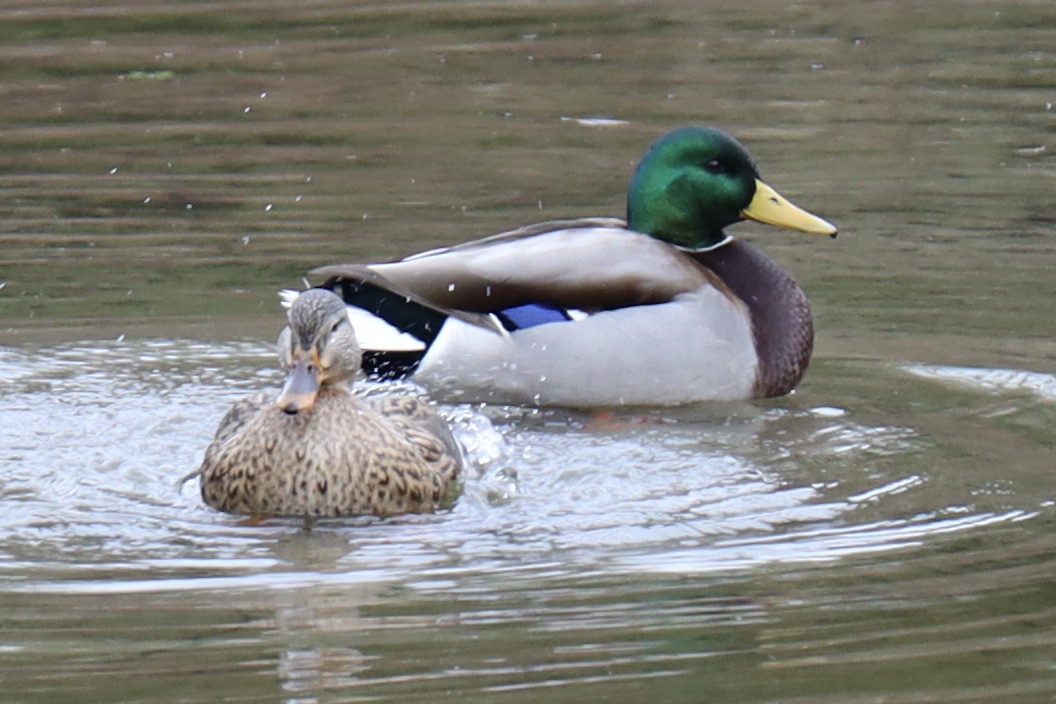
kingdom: Animalia
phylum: Chordata
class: Aves
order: Anseriformes
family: Anatidae
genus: Anas
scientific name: Anas platyrhynchos
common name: Mallard
